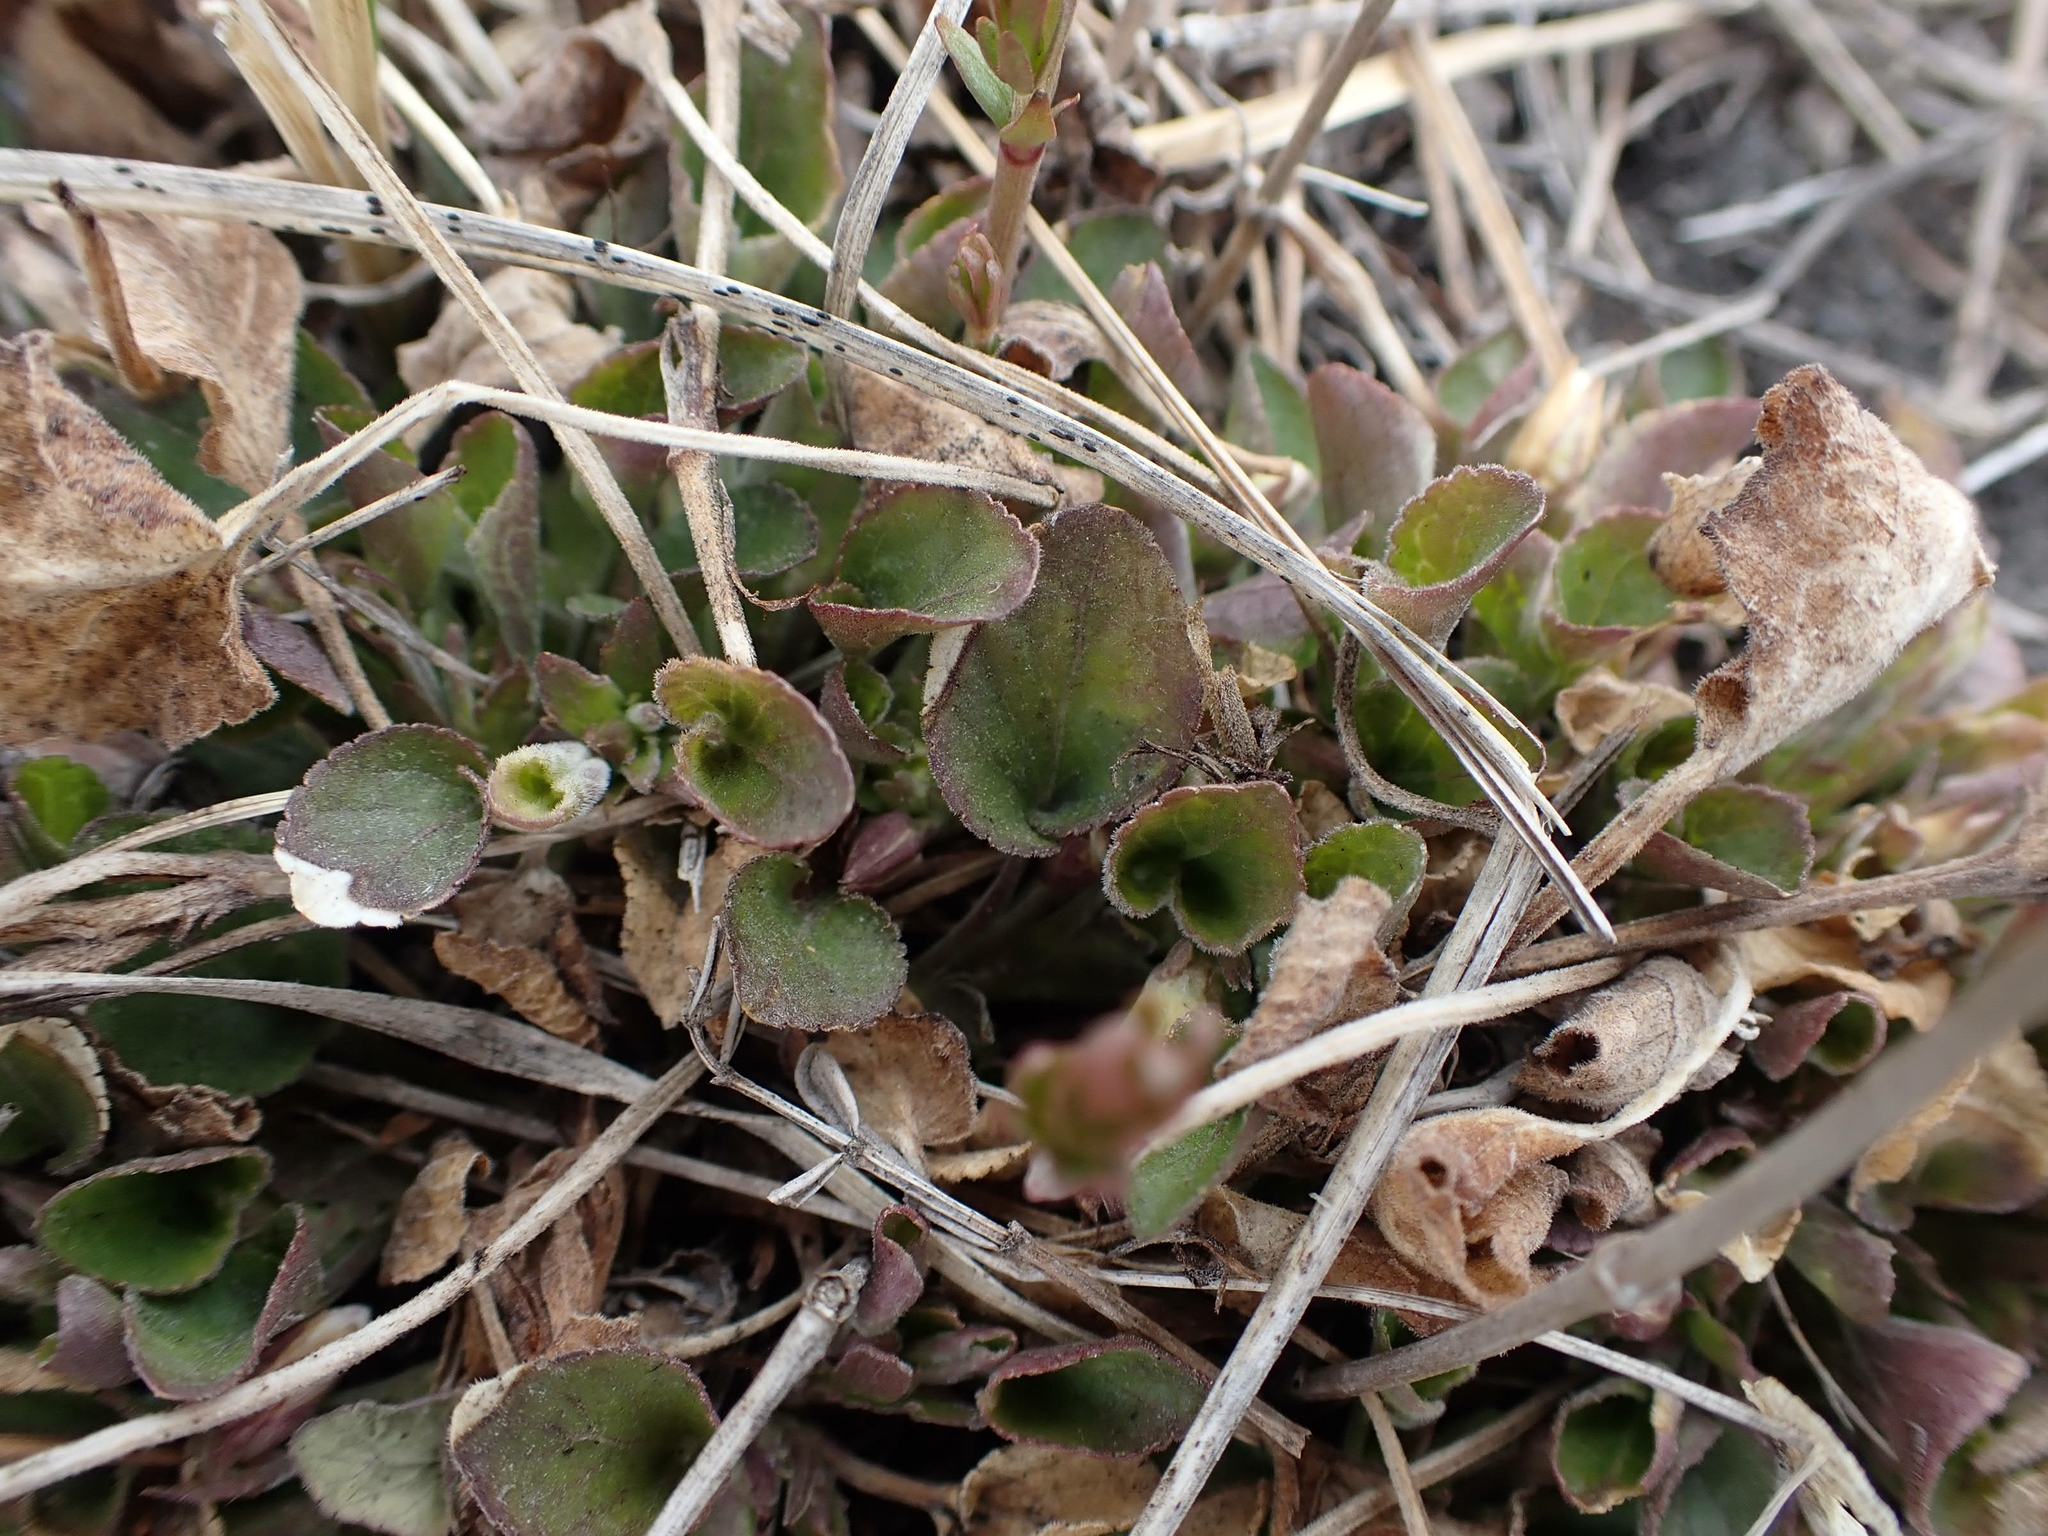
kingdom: Plantae
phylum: Tracheophyta
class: Magnoliopsida
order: Malpighiales
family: Violaceae
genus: Viola
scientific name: Viola adunca
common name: Sand violet
